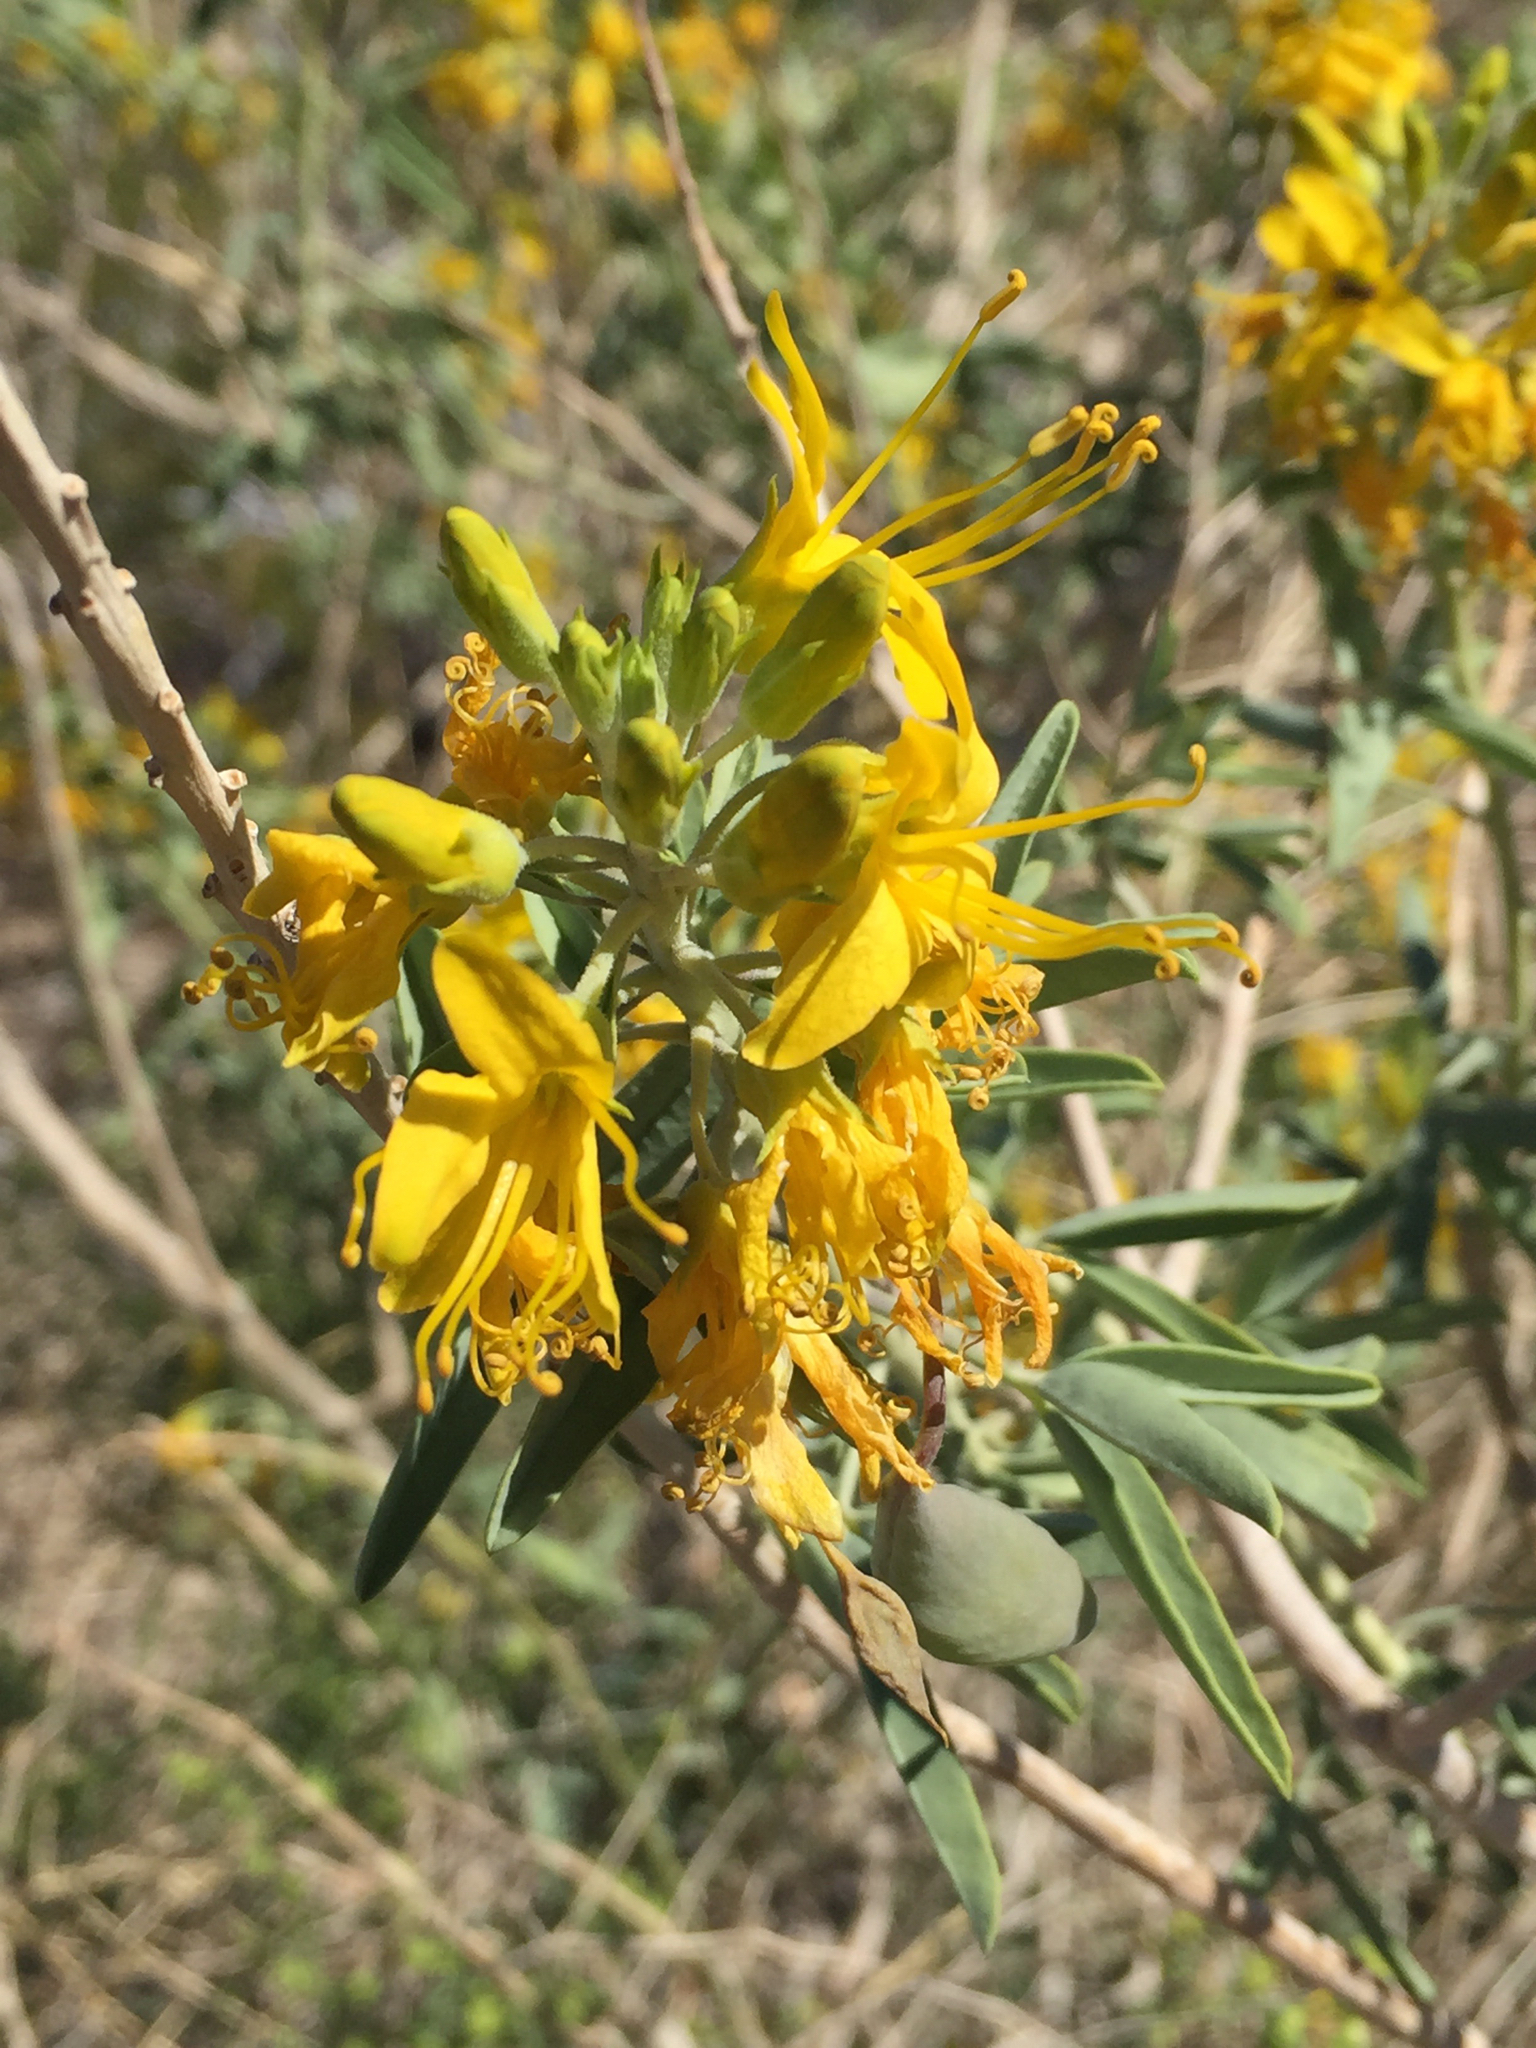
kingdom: Plantae
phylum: Tracheophyta
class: Magnoliopsida
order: Brassicales
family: Cleomaceae
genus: Cleomella
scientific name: Cleomella arborea
